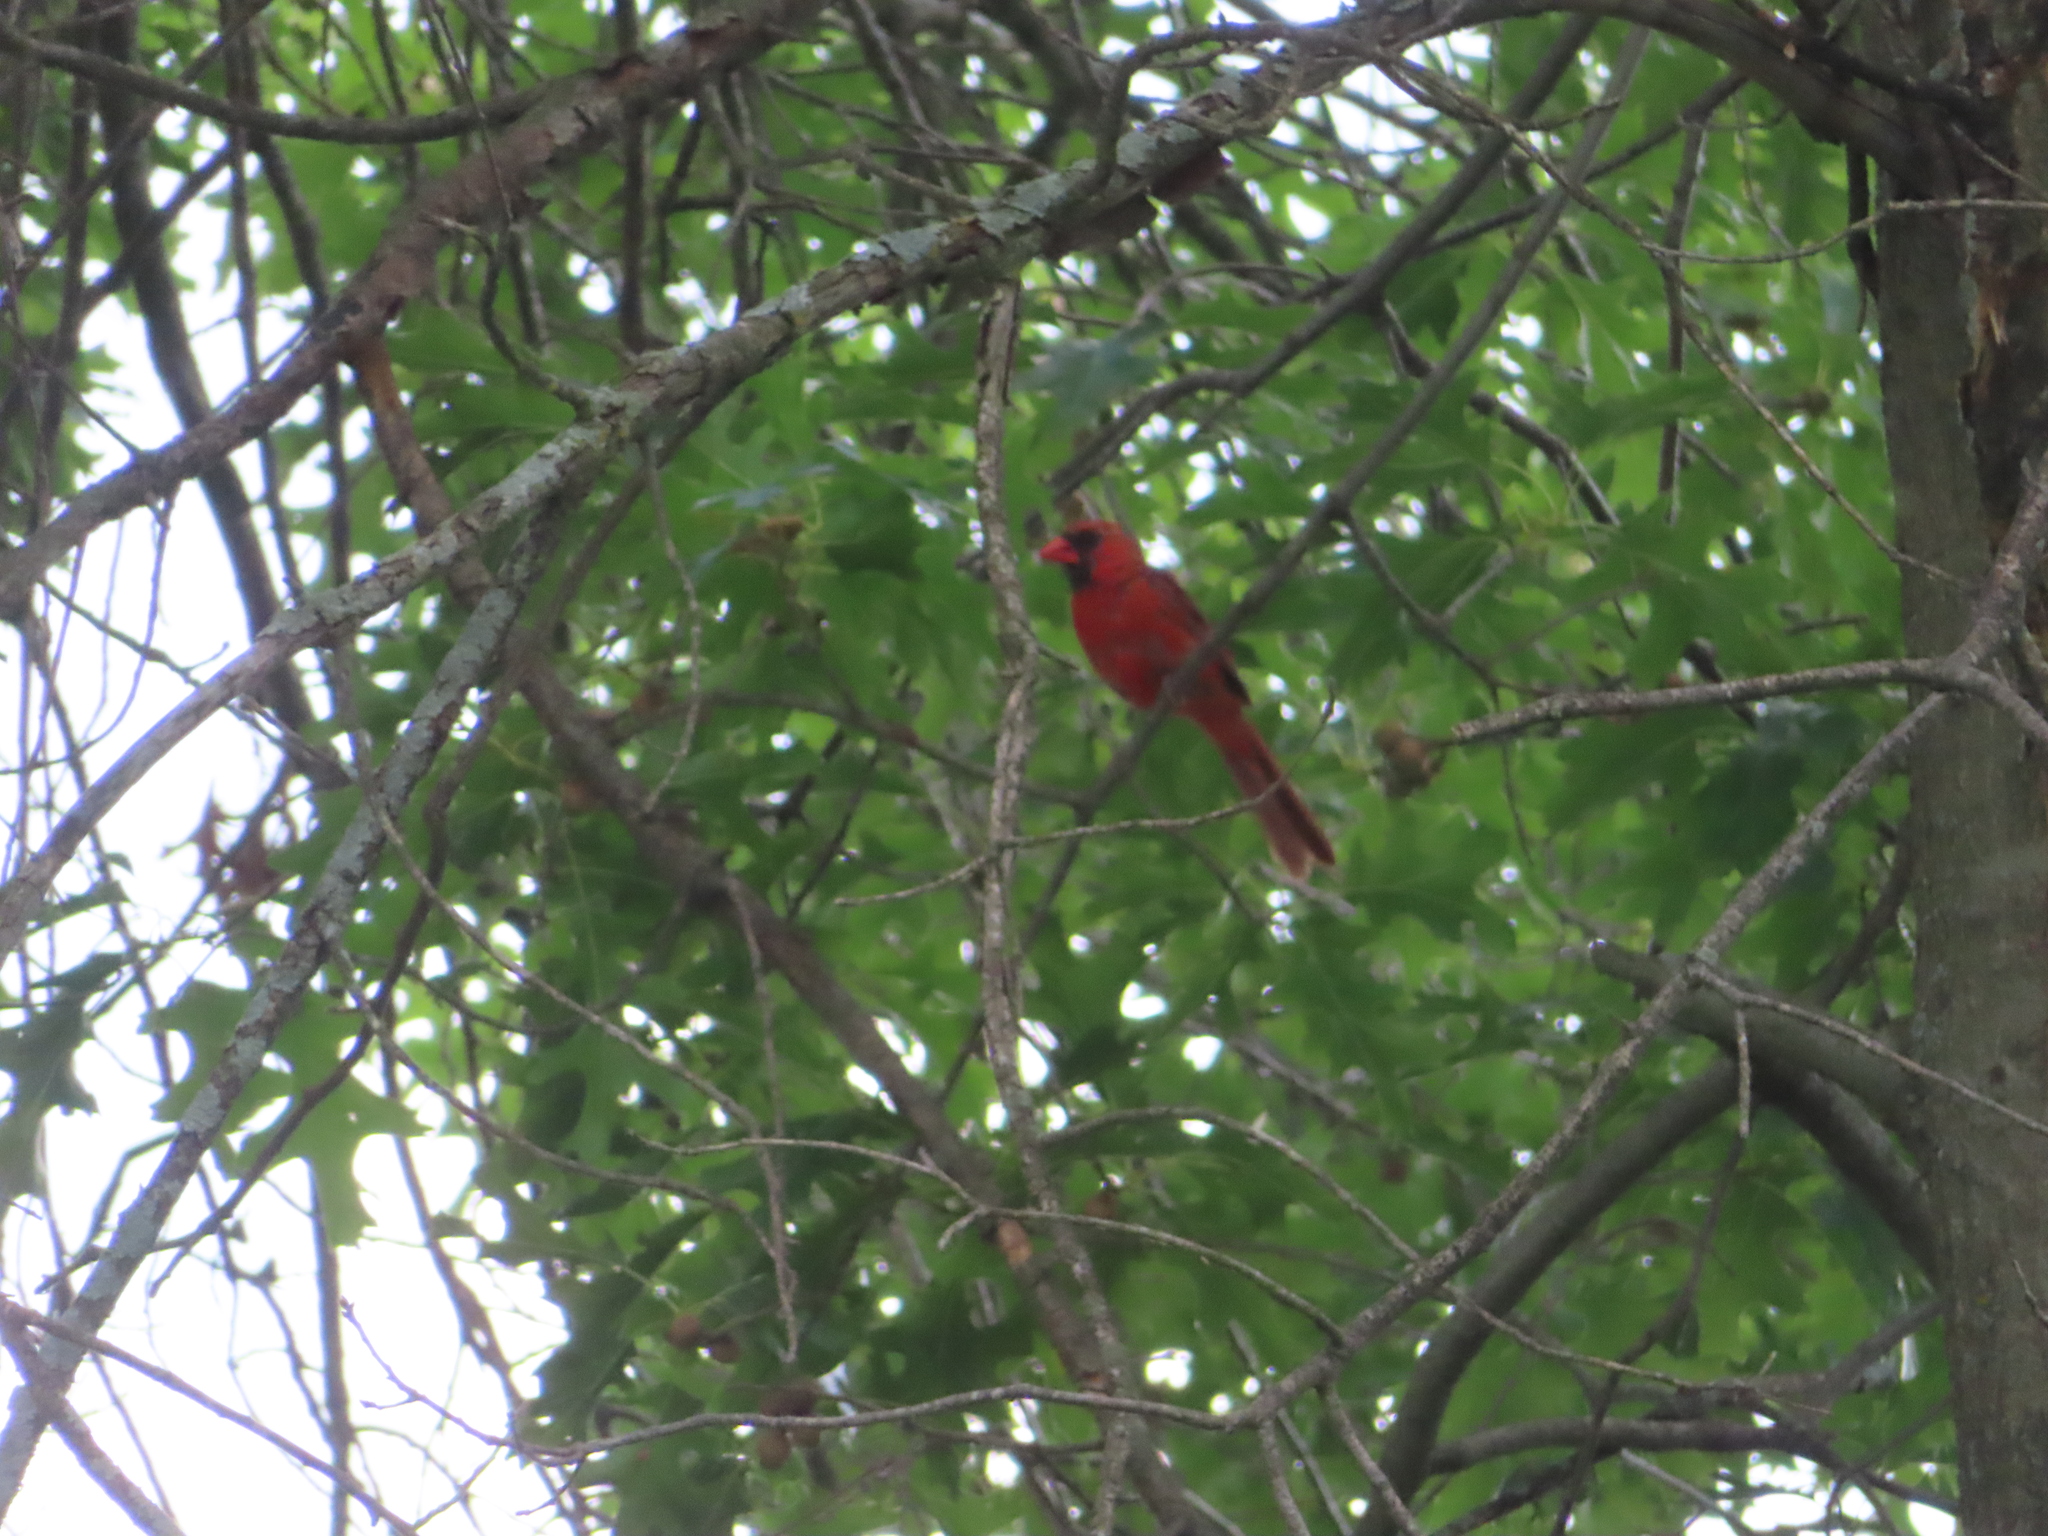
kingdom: Animalia
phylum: Chordata
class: Aves
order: Passeriformes
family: Cardinalidae
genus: Cardinalis
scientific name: Cardinalis cardinalis
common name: Northern cardinal
